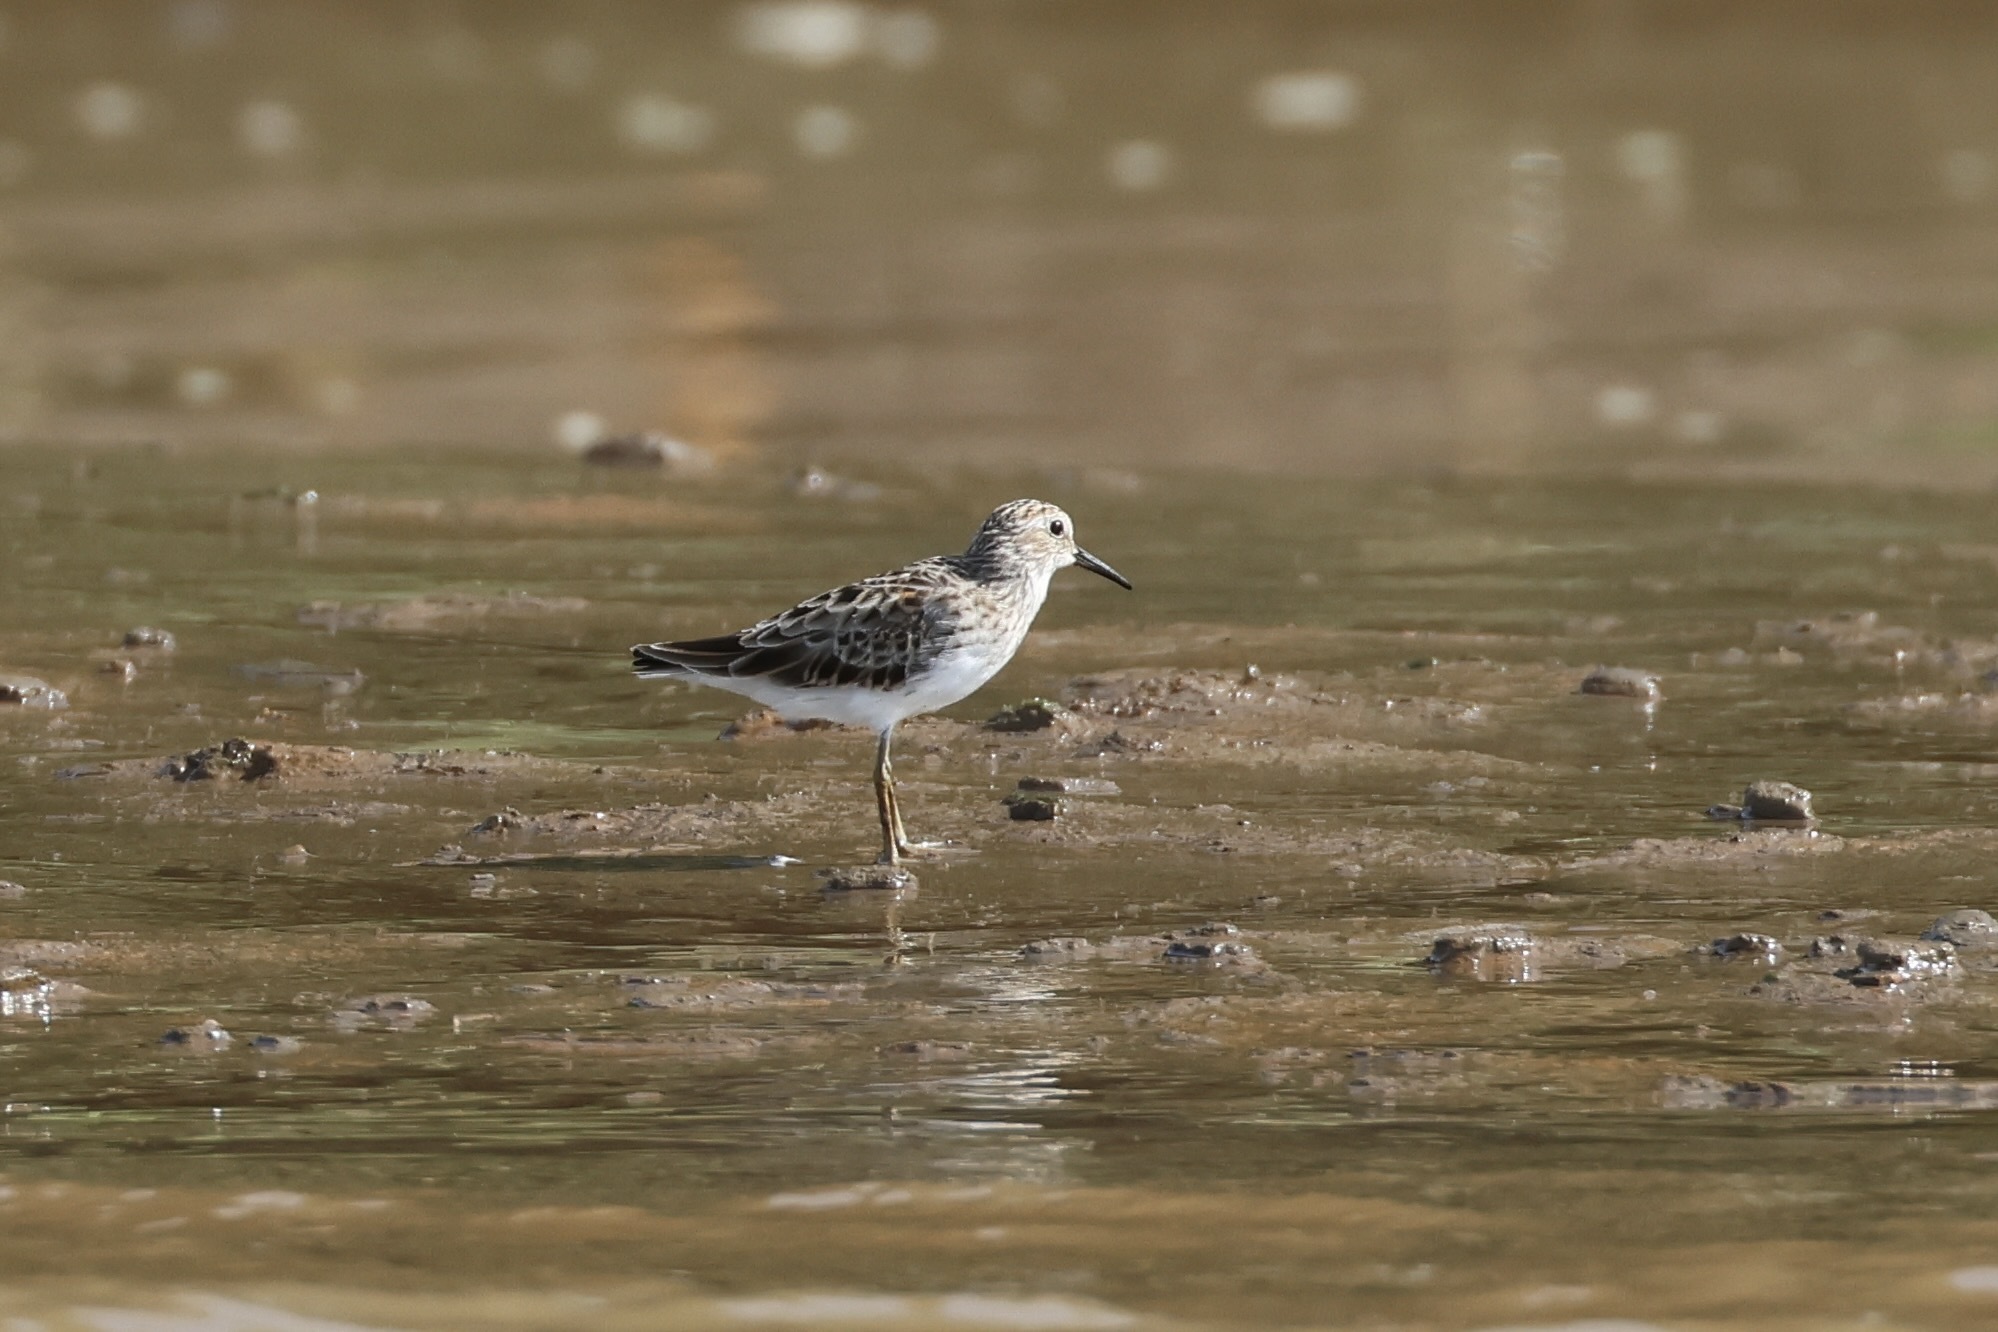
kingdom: Animalia
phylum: Chordata
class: Aves
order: Charadriiformes
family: Scolopacidae
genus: Calidris
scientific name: Calidris minutilla
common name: Least sandpiper
